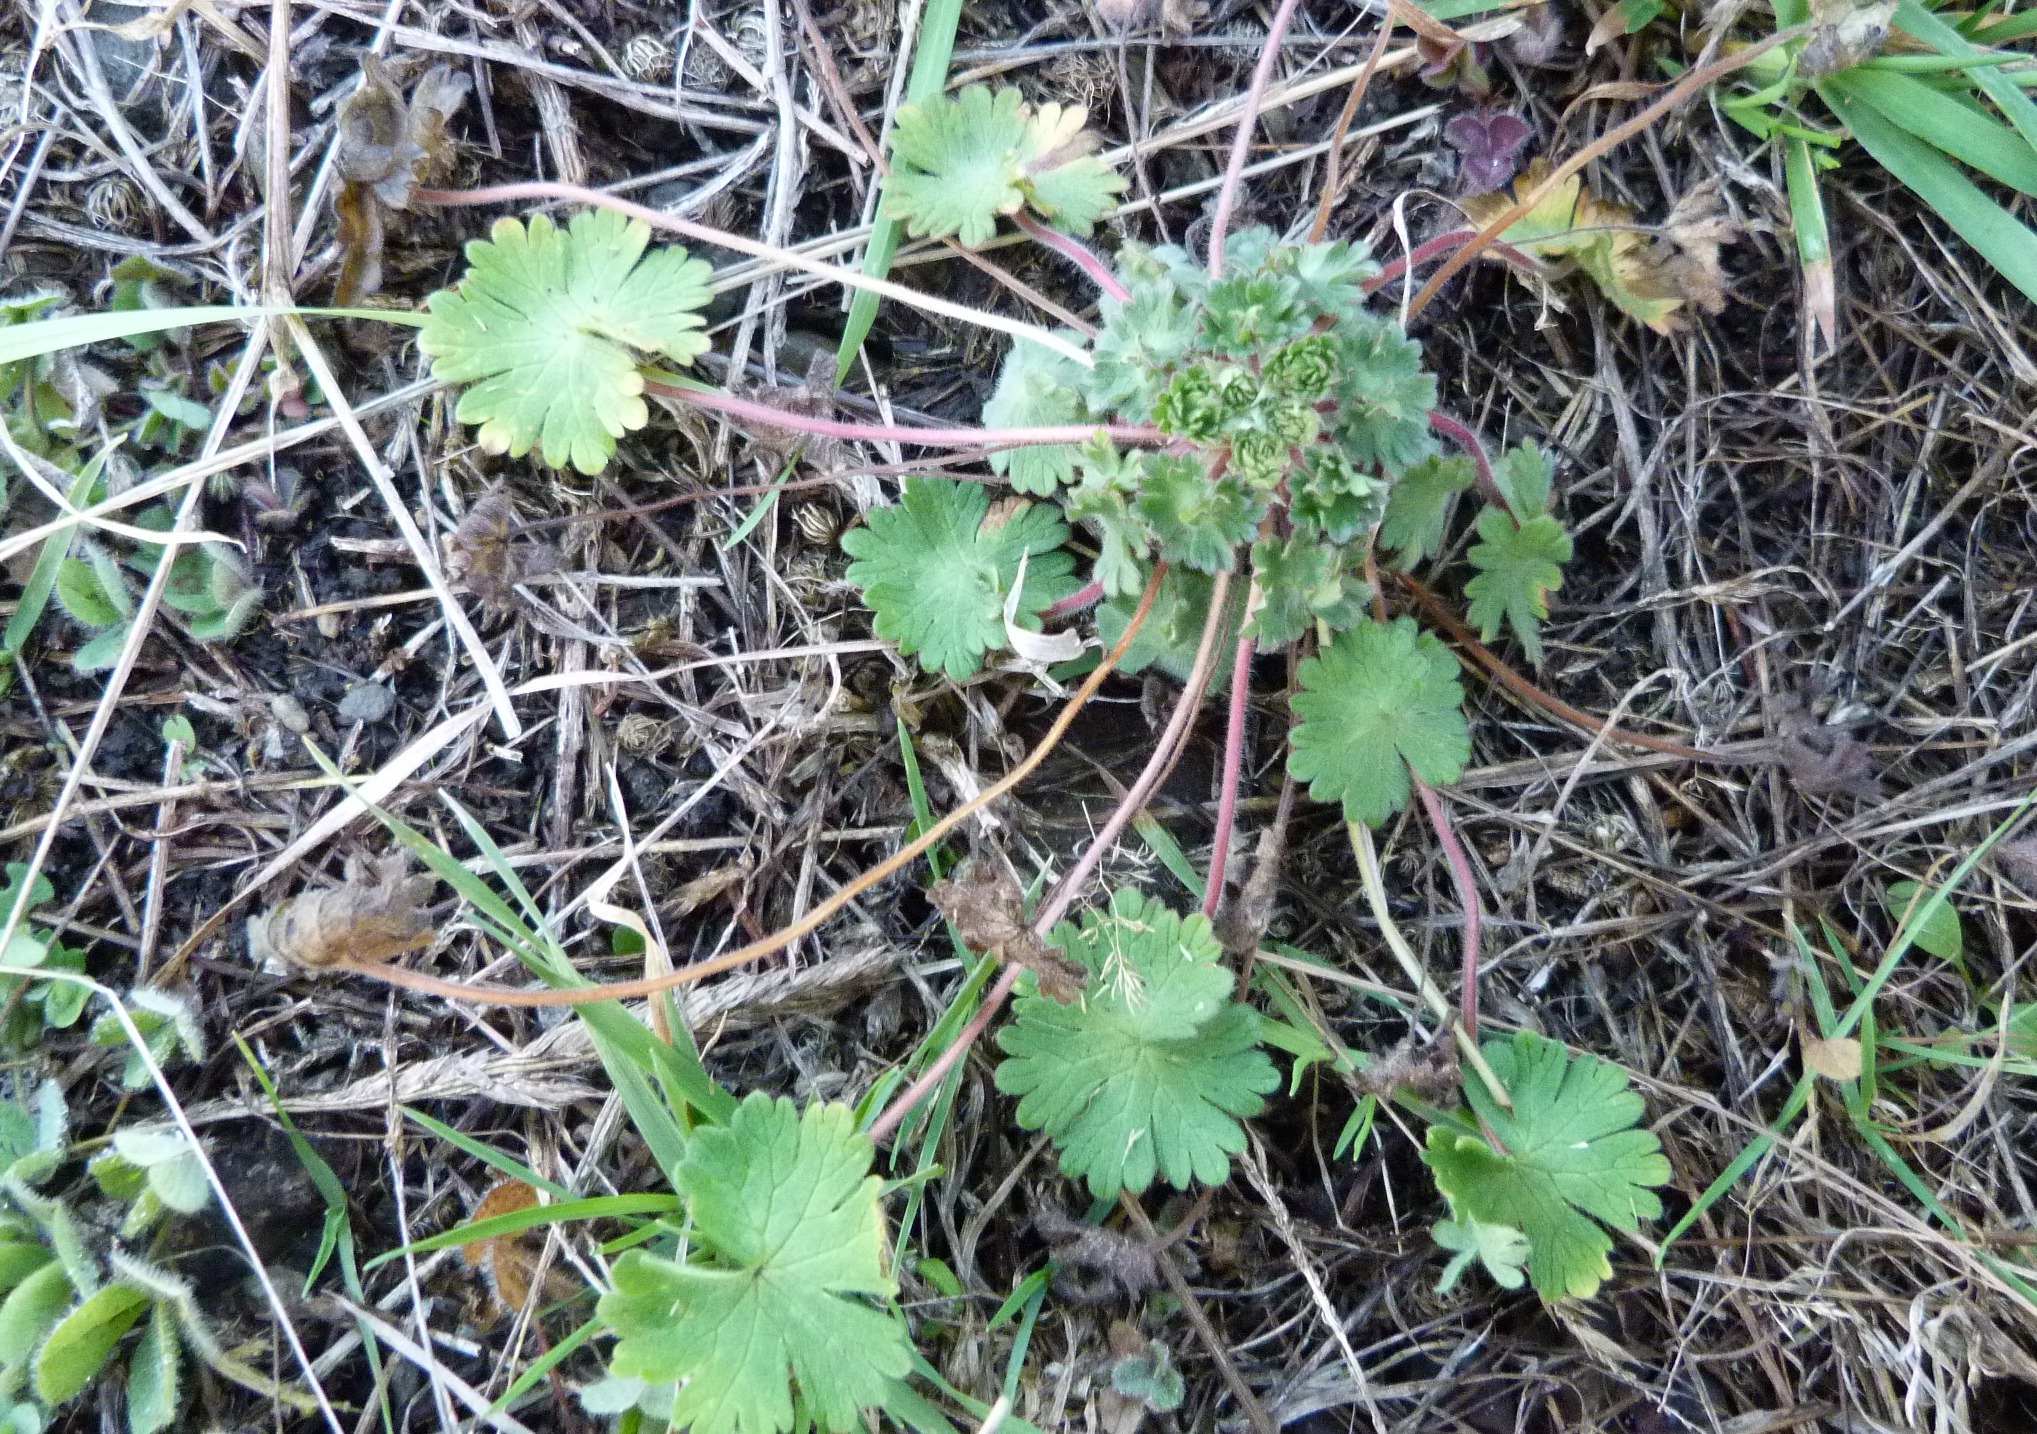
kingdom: Plantae
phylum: Tracheophyta
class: Magnoliopsida
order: Geraniales
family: Geraniaceae
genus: Geranium
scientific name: Geranium molle
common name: Dove's-foot crane's-bill
